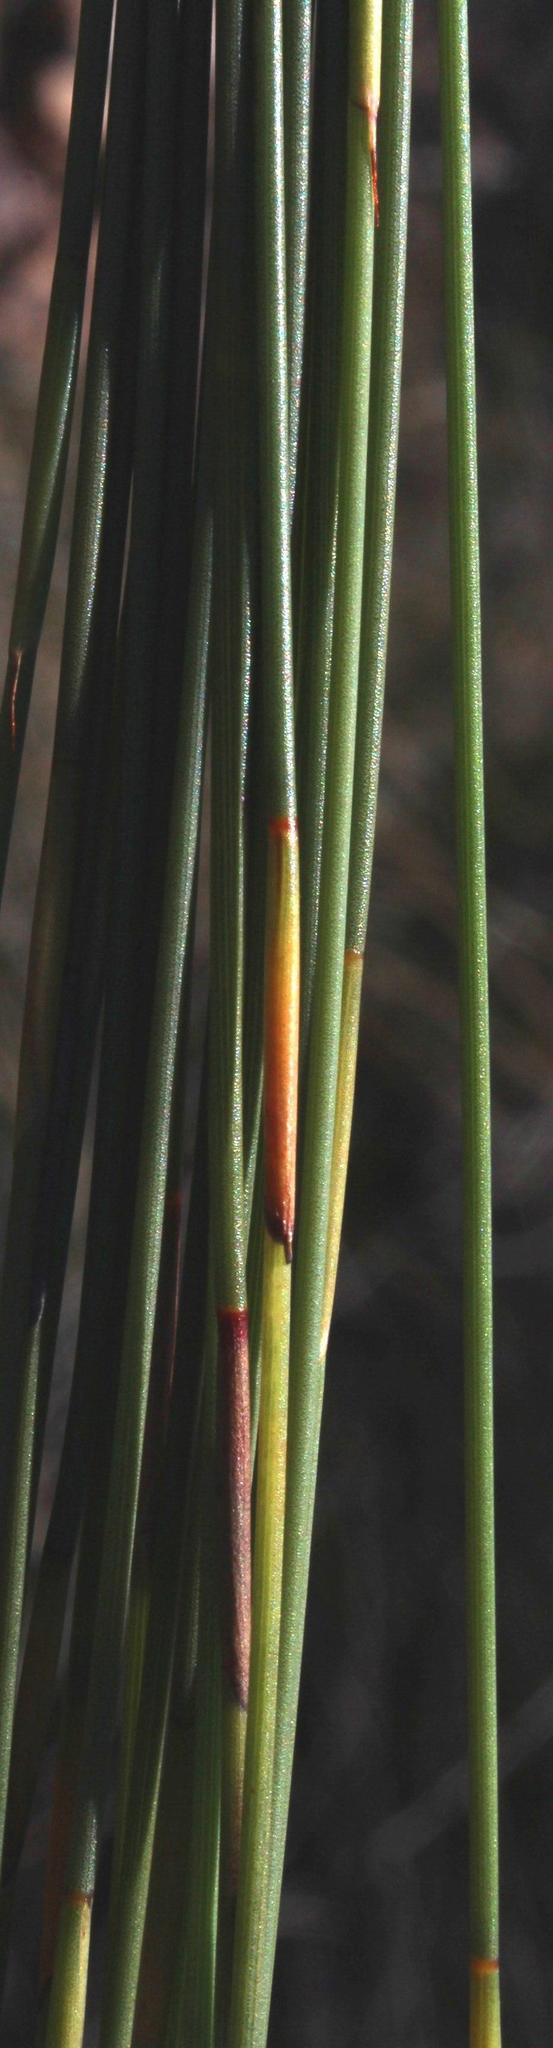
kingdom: Plantae
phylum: Tracheophyta
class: Liliopsida
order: Poales
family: Restionaceae
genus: Hypodiscus
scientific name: Hypodiscus striatus
